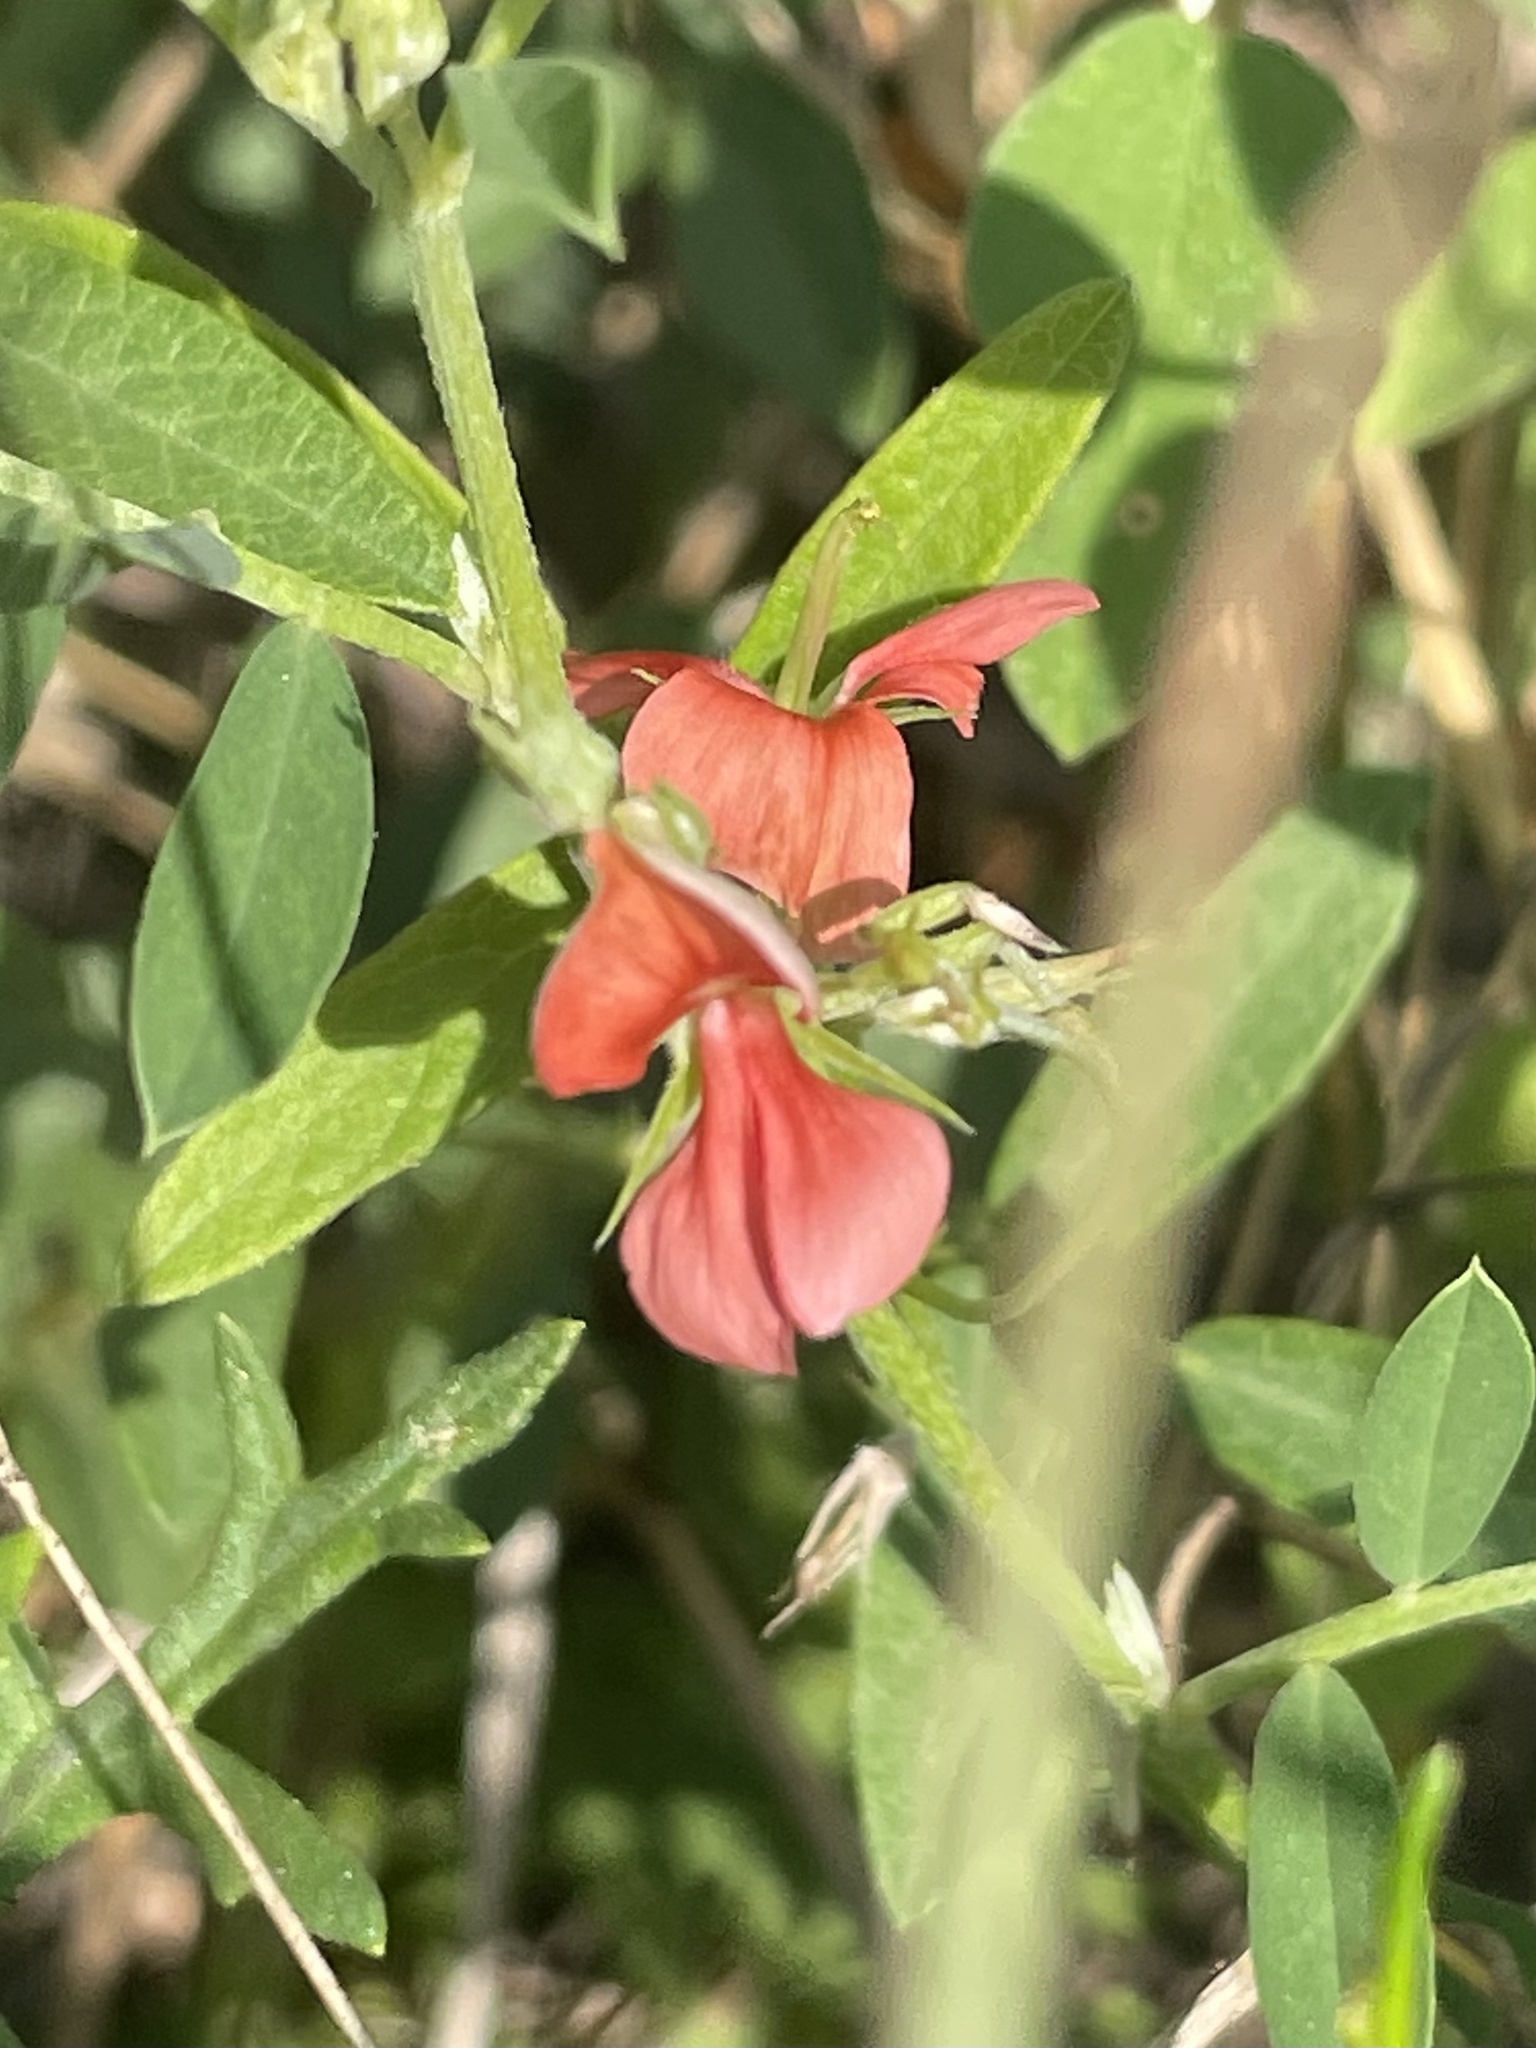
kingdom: Plantae
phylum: Tracheophyta
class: Magnoliopsida
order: Fabales
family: Fabaceae
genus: Indigofera
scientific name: Indigofera miniata
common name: Coast indigo
